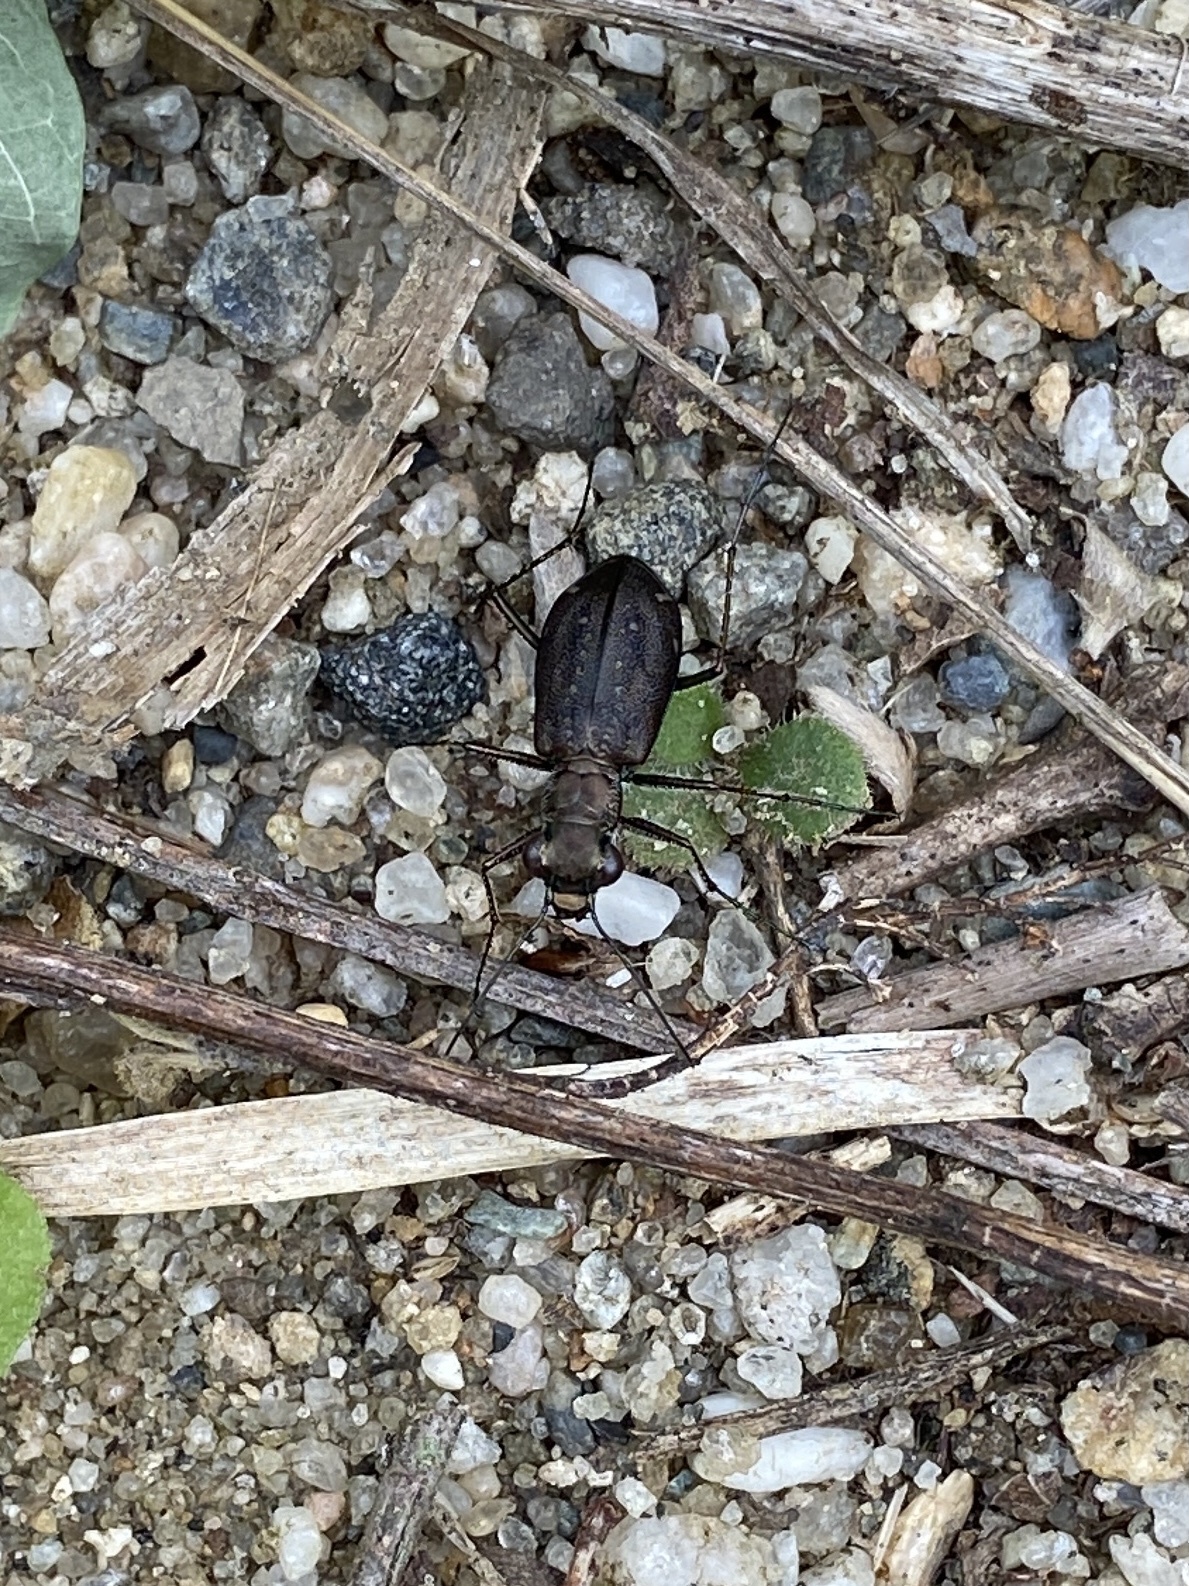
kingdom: Animalia
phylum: Arthropoda
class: Insecta
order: Coleoptera
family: Carabidae
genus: Cicindela
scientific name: Cicindela punctulata
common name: Punctured tiger beetle
